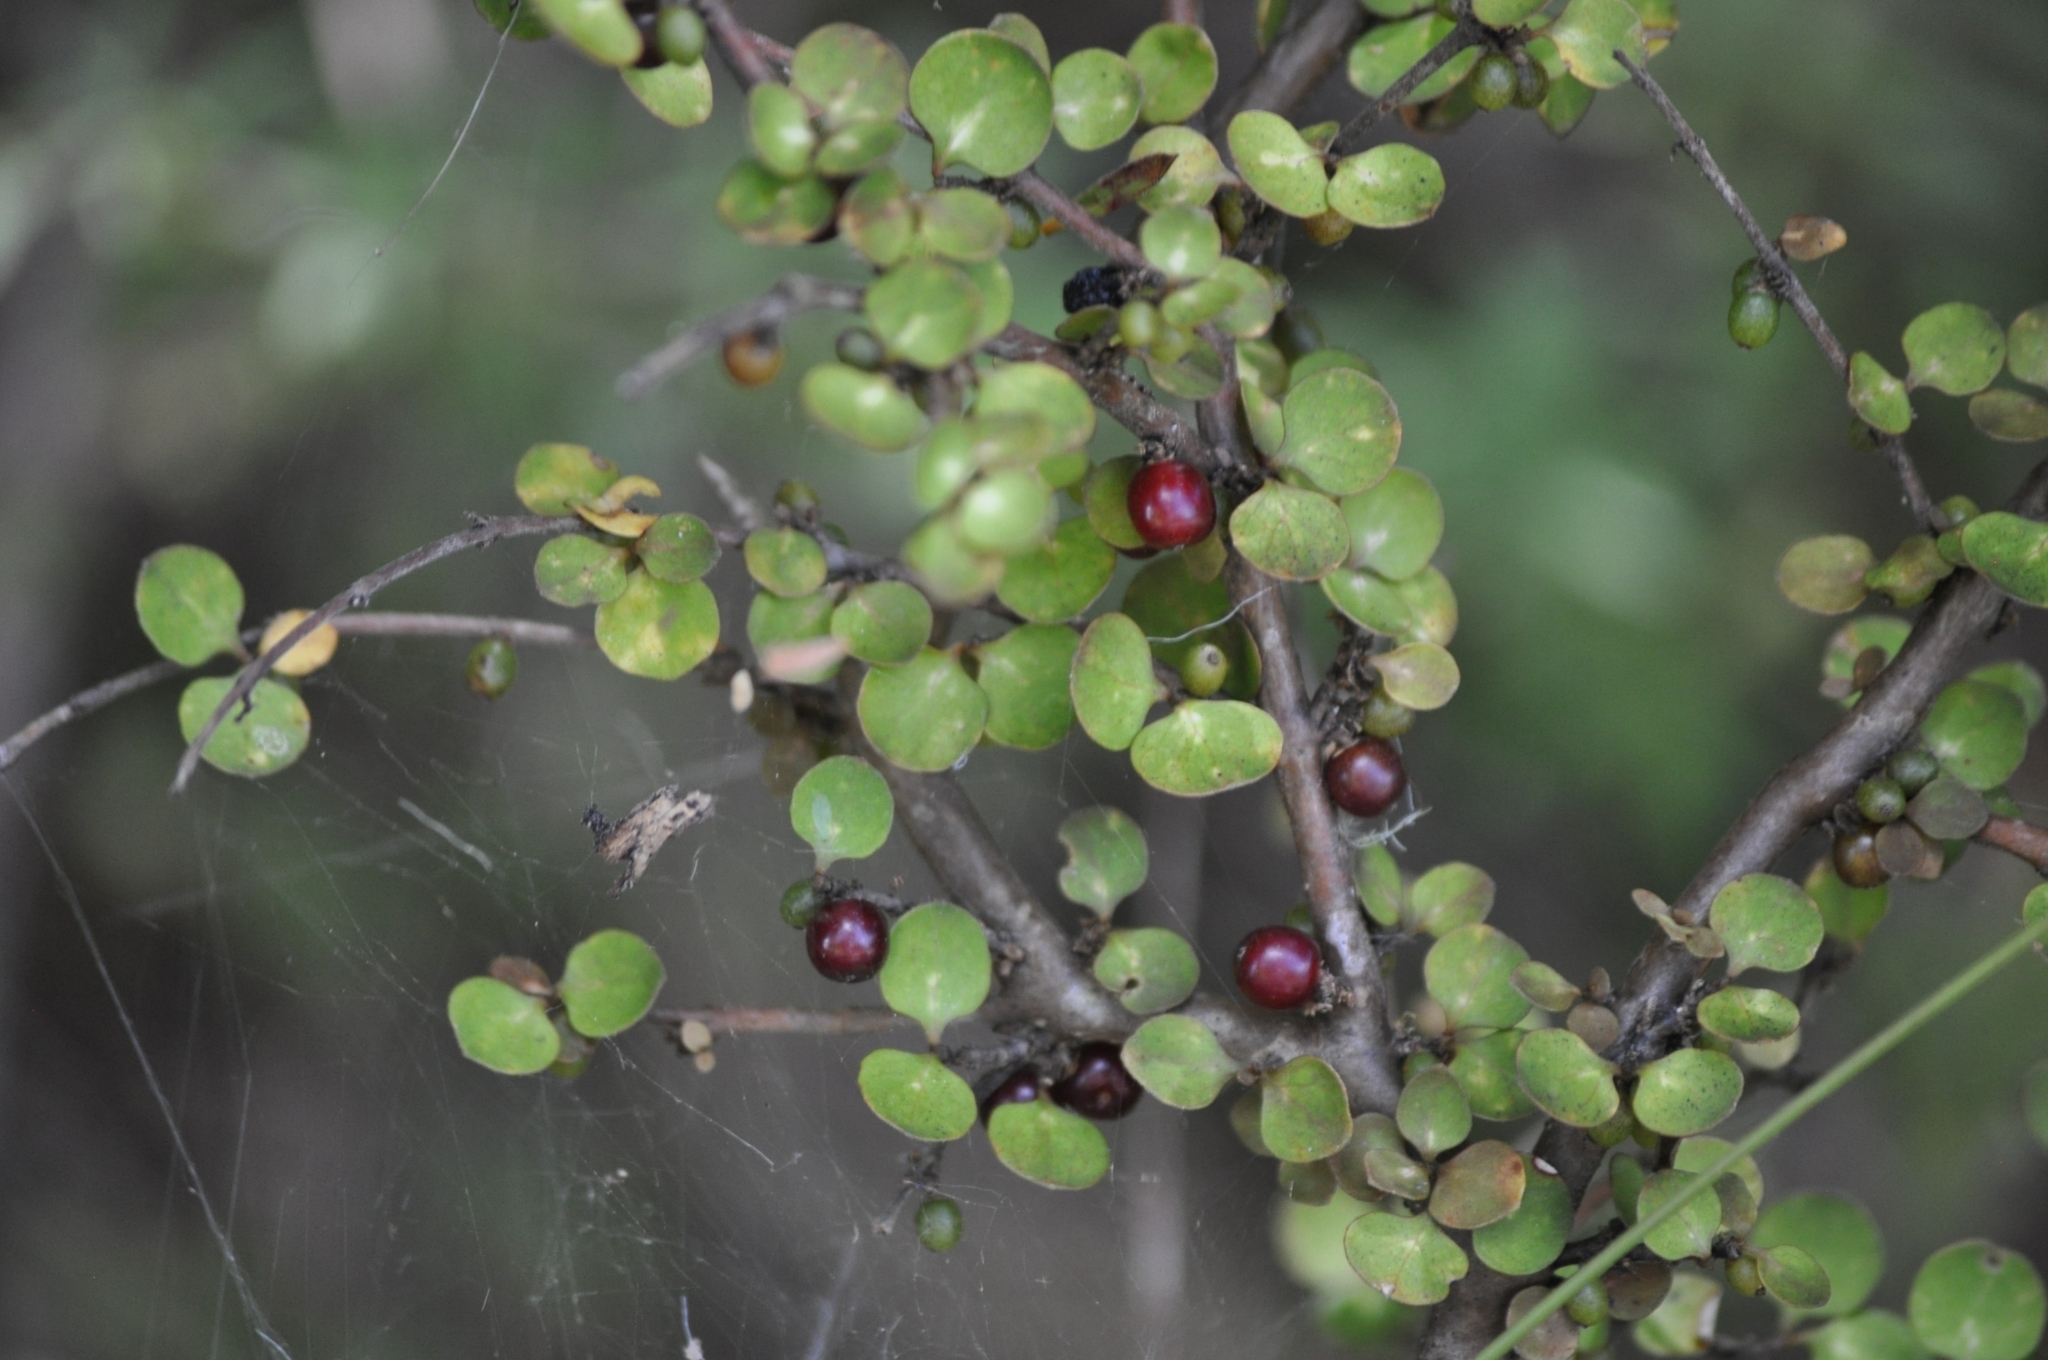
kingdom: Plantae
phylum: Tracheophyta
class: Magnoliopsida
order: Gentianales
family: Rubiaceae
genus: Coprosma
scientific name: Coprosma rhamnoides
